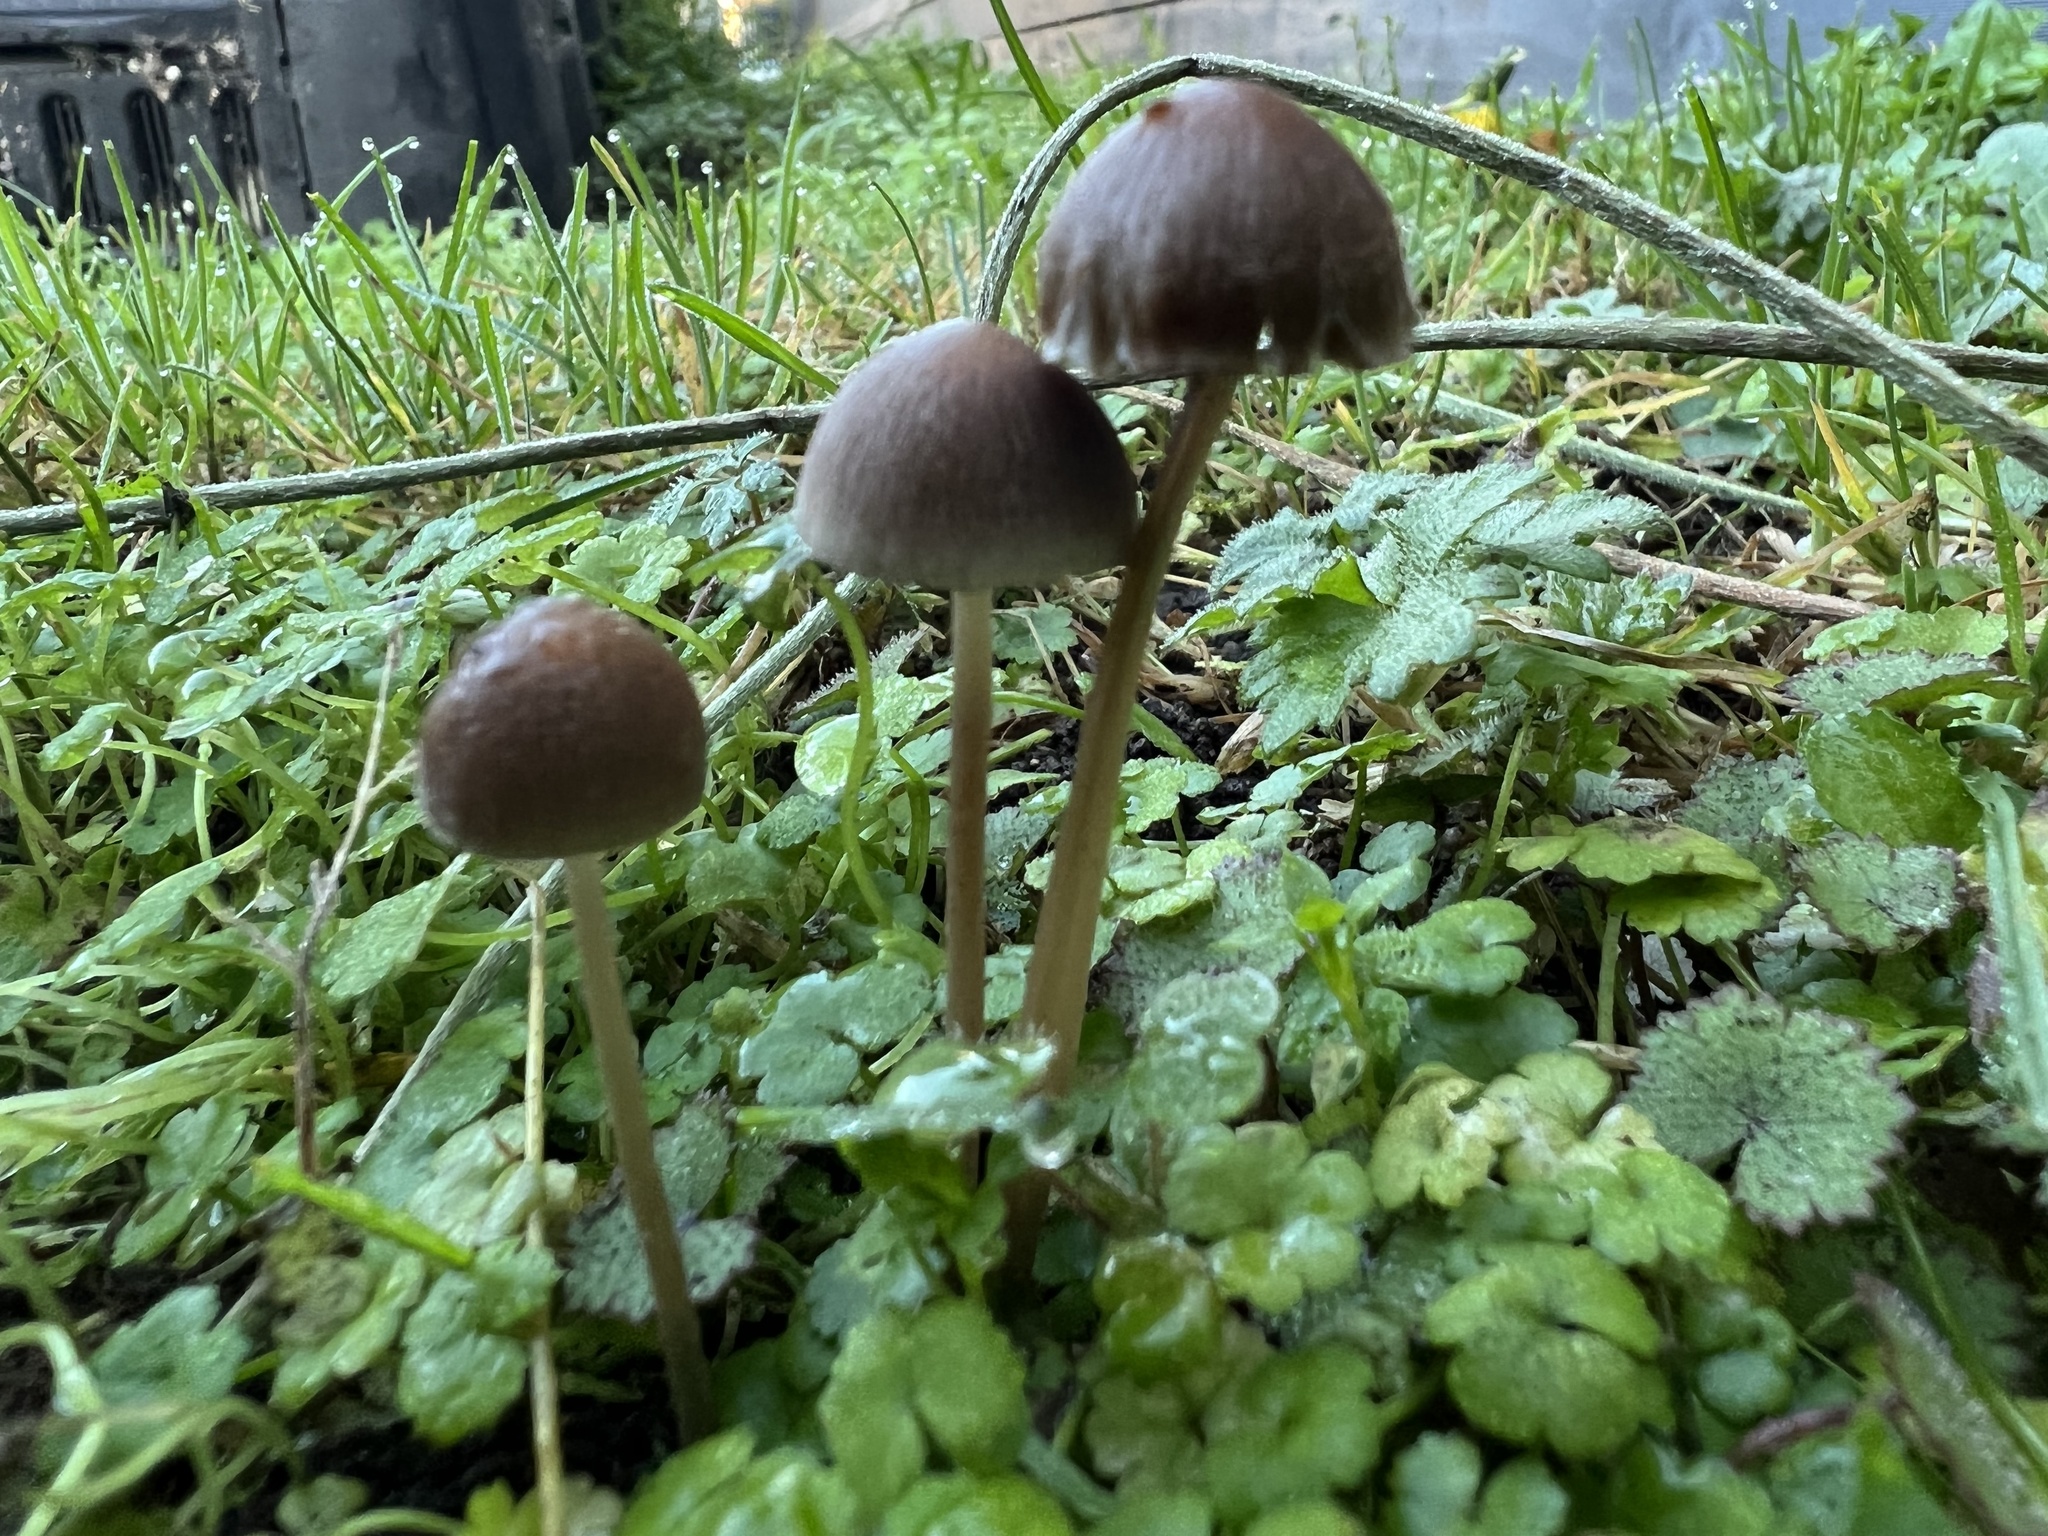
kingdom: Fungi
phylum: Basidiomycota
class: Agaricomycetes
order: Agaricales
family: Psathyrellaceae
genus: Psathyrella
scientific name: Psathyrella microrhiza
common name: Rootlet brittlestem
